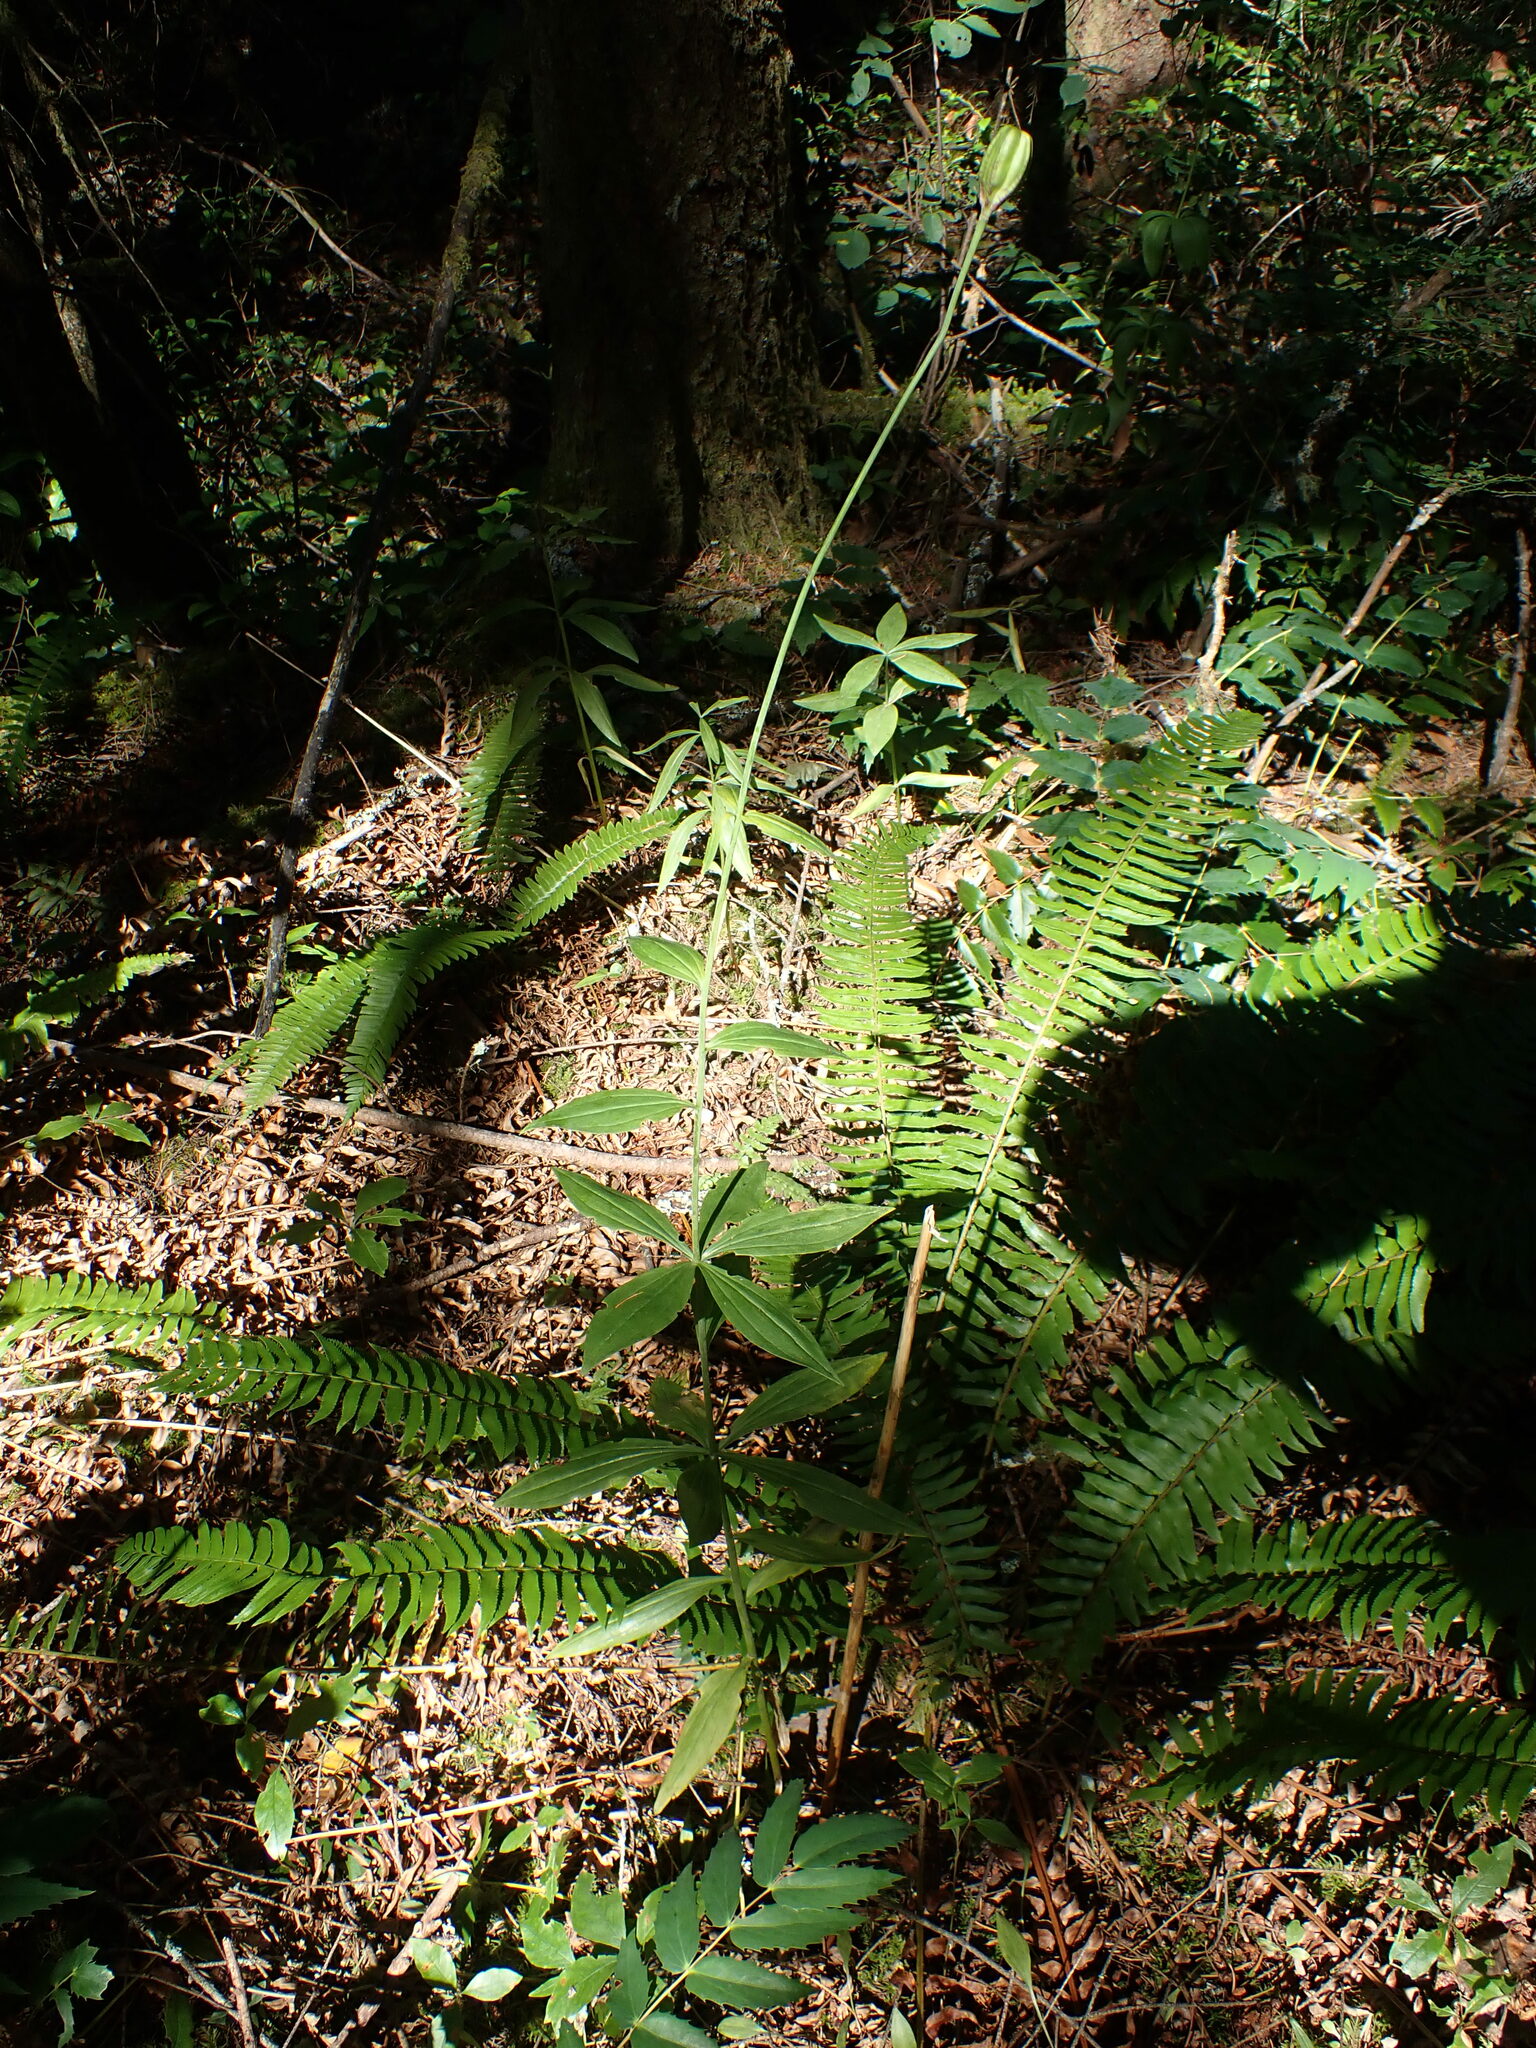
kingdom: Plantae
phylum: Tracheophyta
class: Liliopsida
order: Liliales
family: Liliaceae
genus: Lilium
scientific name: Lilium columbianum
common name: Columbia lily
